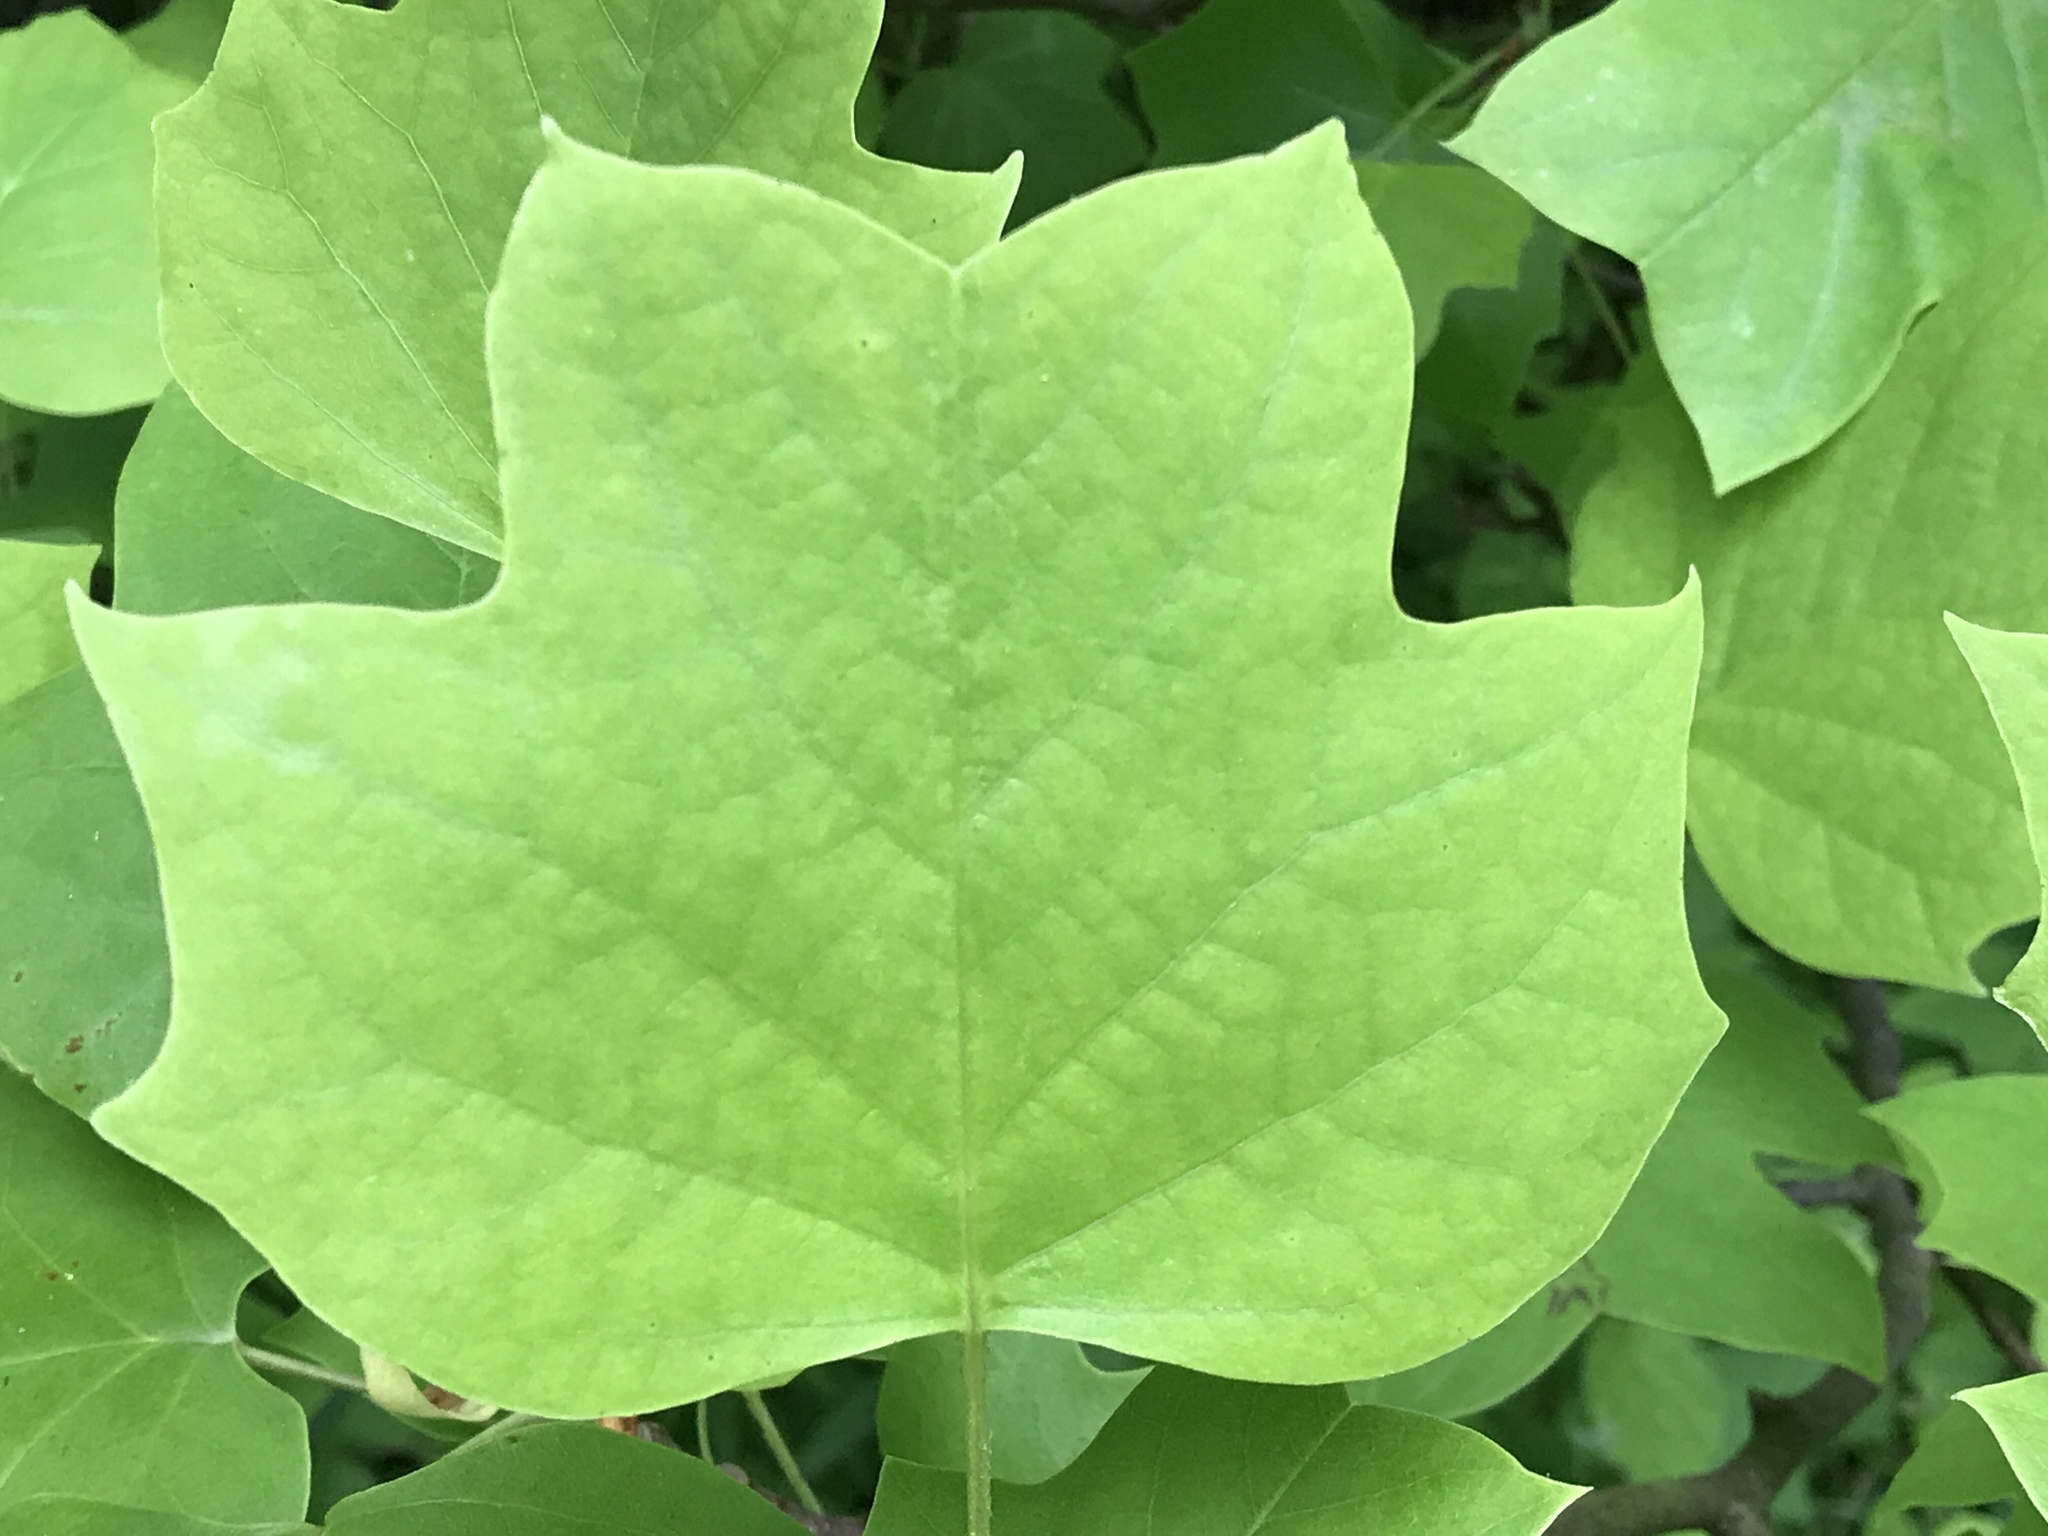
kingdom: Plantae
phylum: Tracheophyta
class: Magnoliopsida
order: Magnoliales
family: Magnoliaceae
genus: Liriodendron
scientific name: Liriodendron tulipifera
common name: Tulip tree
